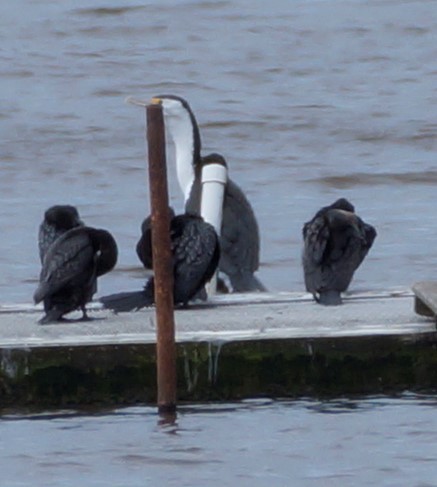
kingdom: Animalia
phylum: Chordata
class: Aves
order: Suliformes
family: Phalacrocoracidae
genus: Phalacrocorax
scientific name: Phalacrocorax varius
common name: Pied cormorant
